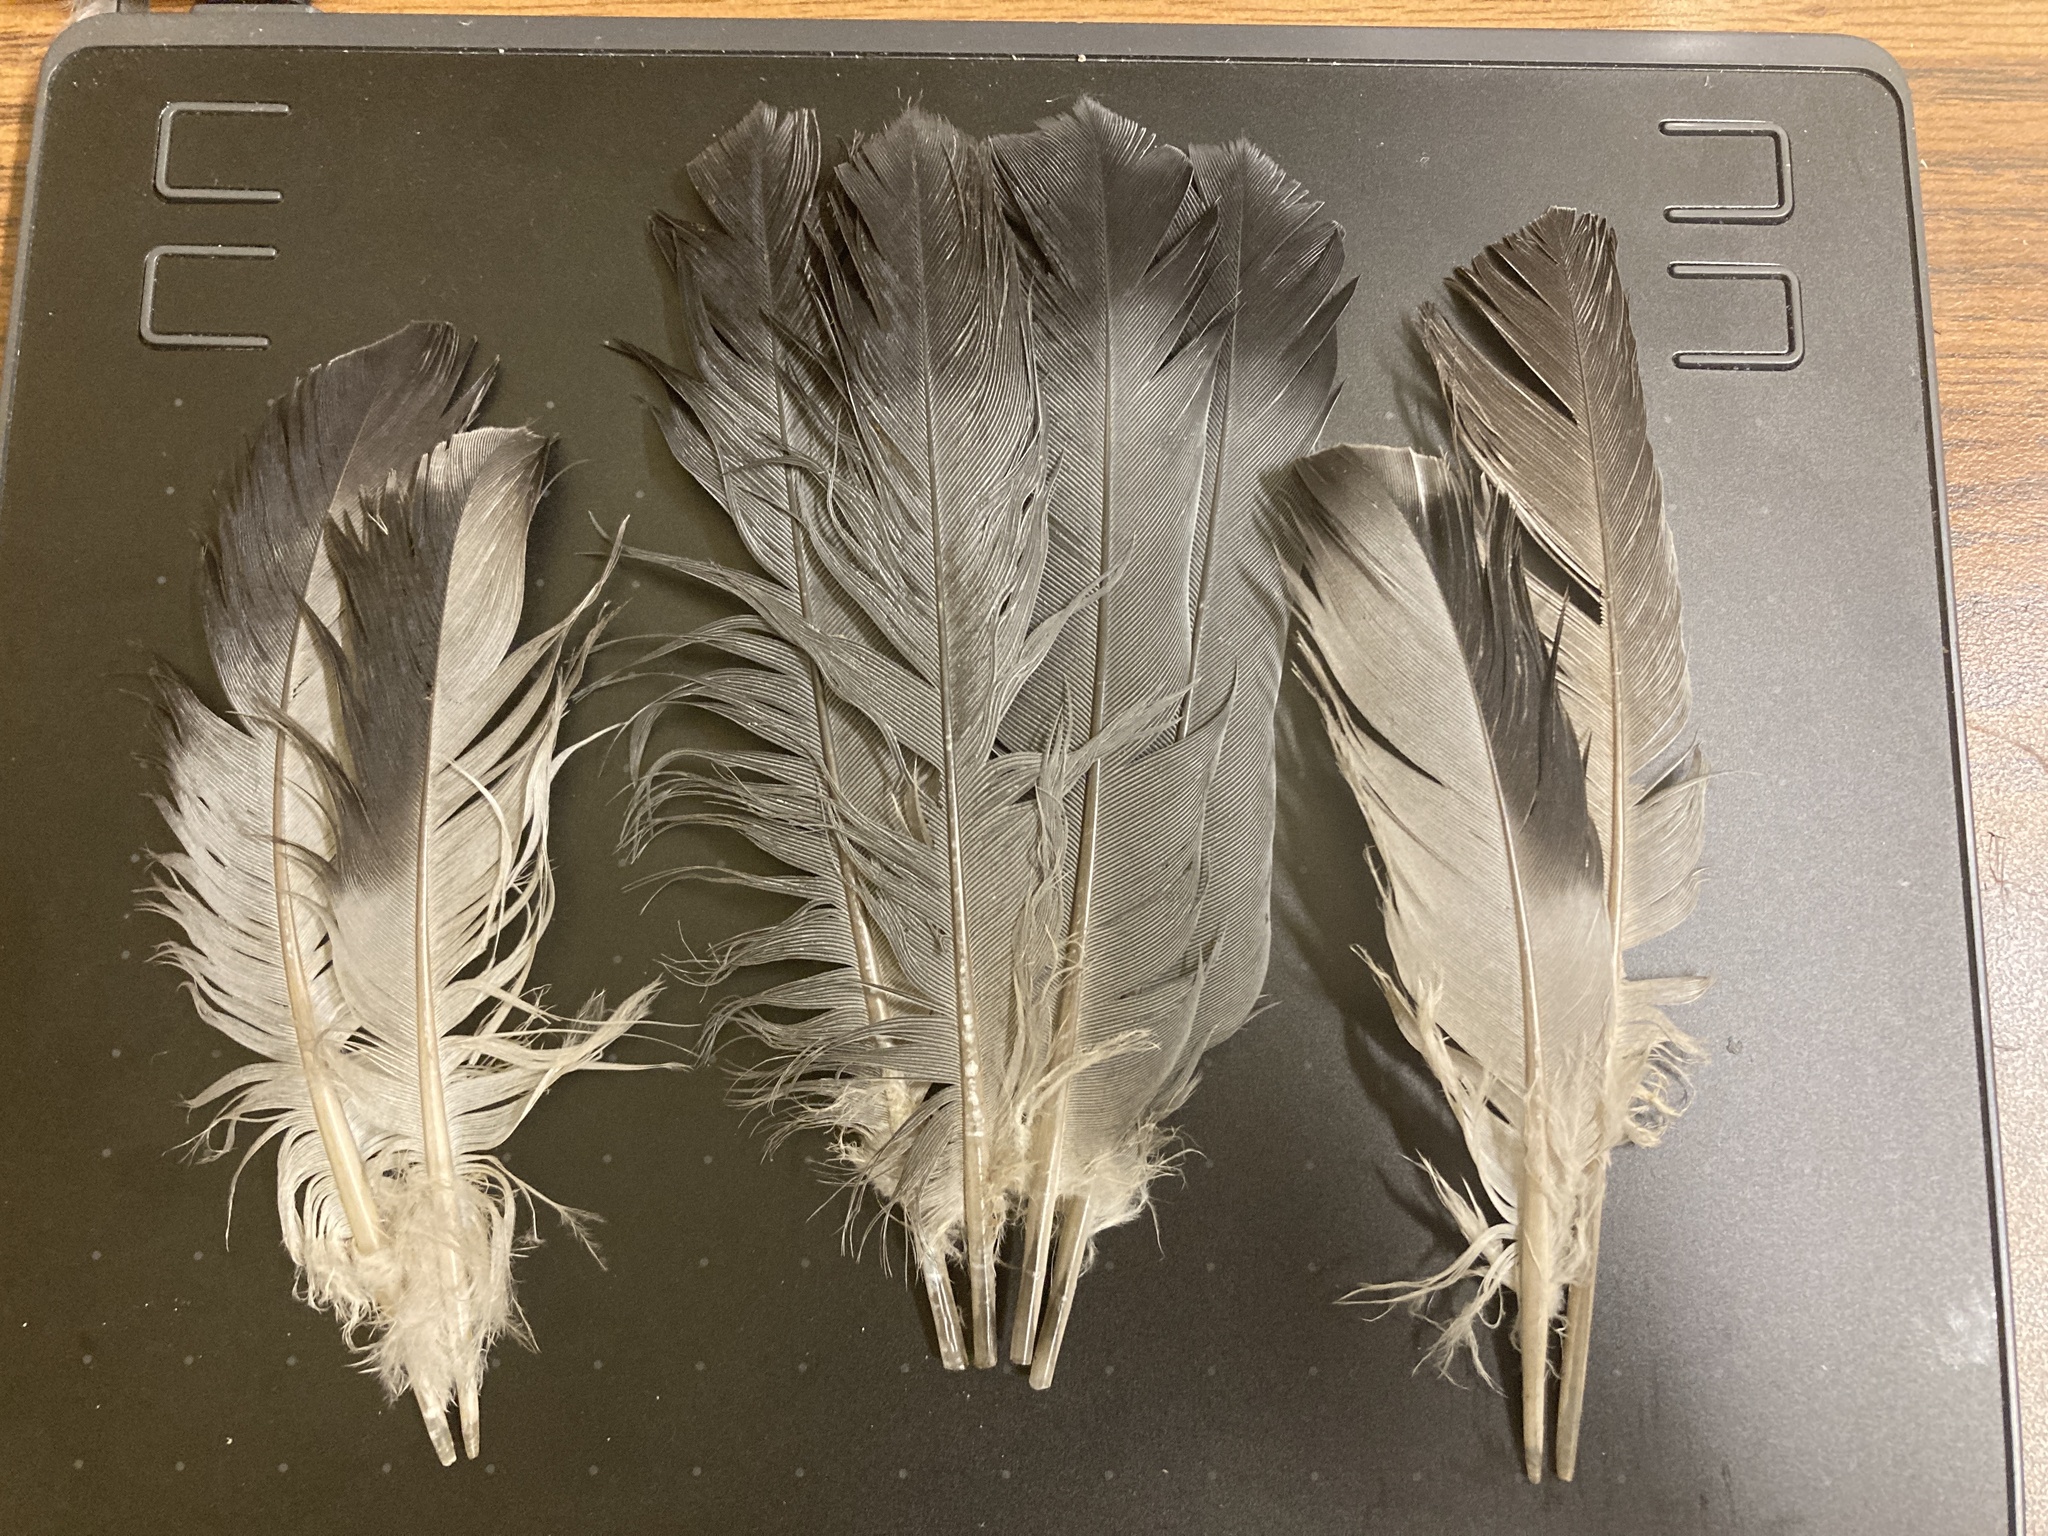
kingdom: Animalia
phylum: Chordata
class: Aves
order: Columbiformes
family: Columbidae
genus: Columba
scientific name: Columba livia
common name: Rock pigeon
